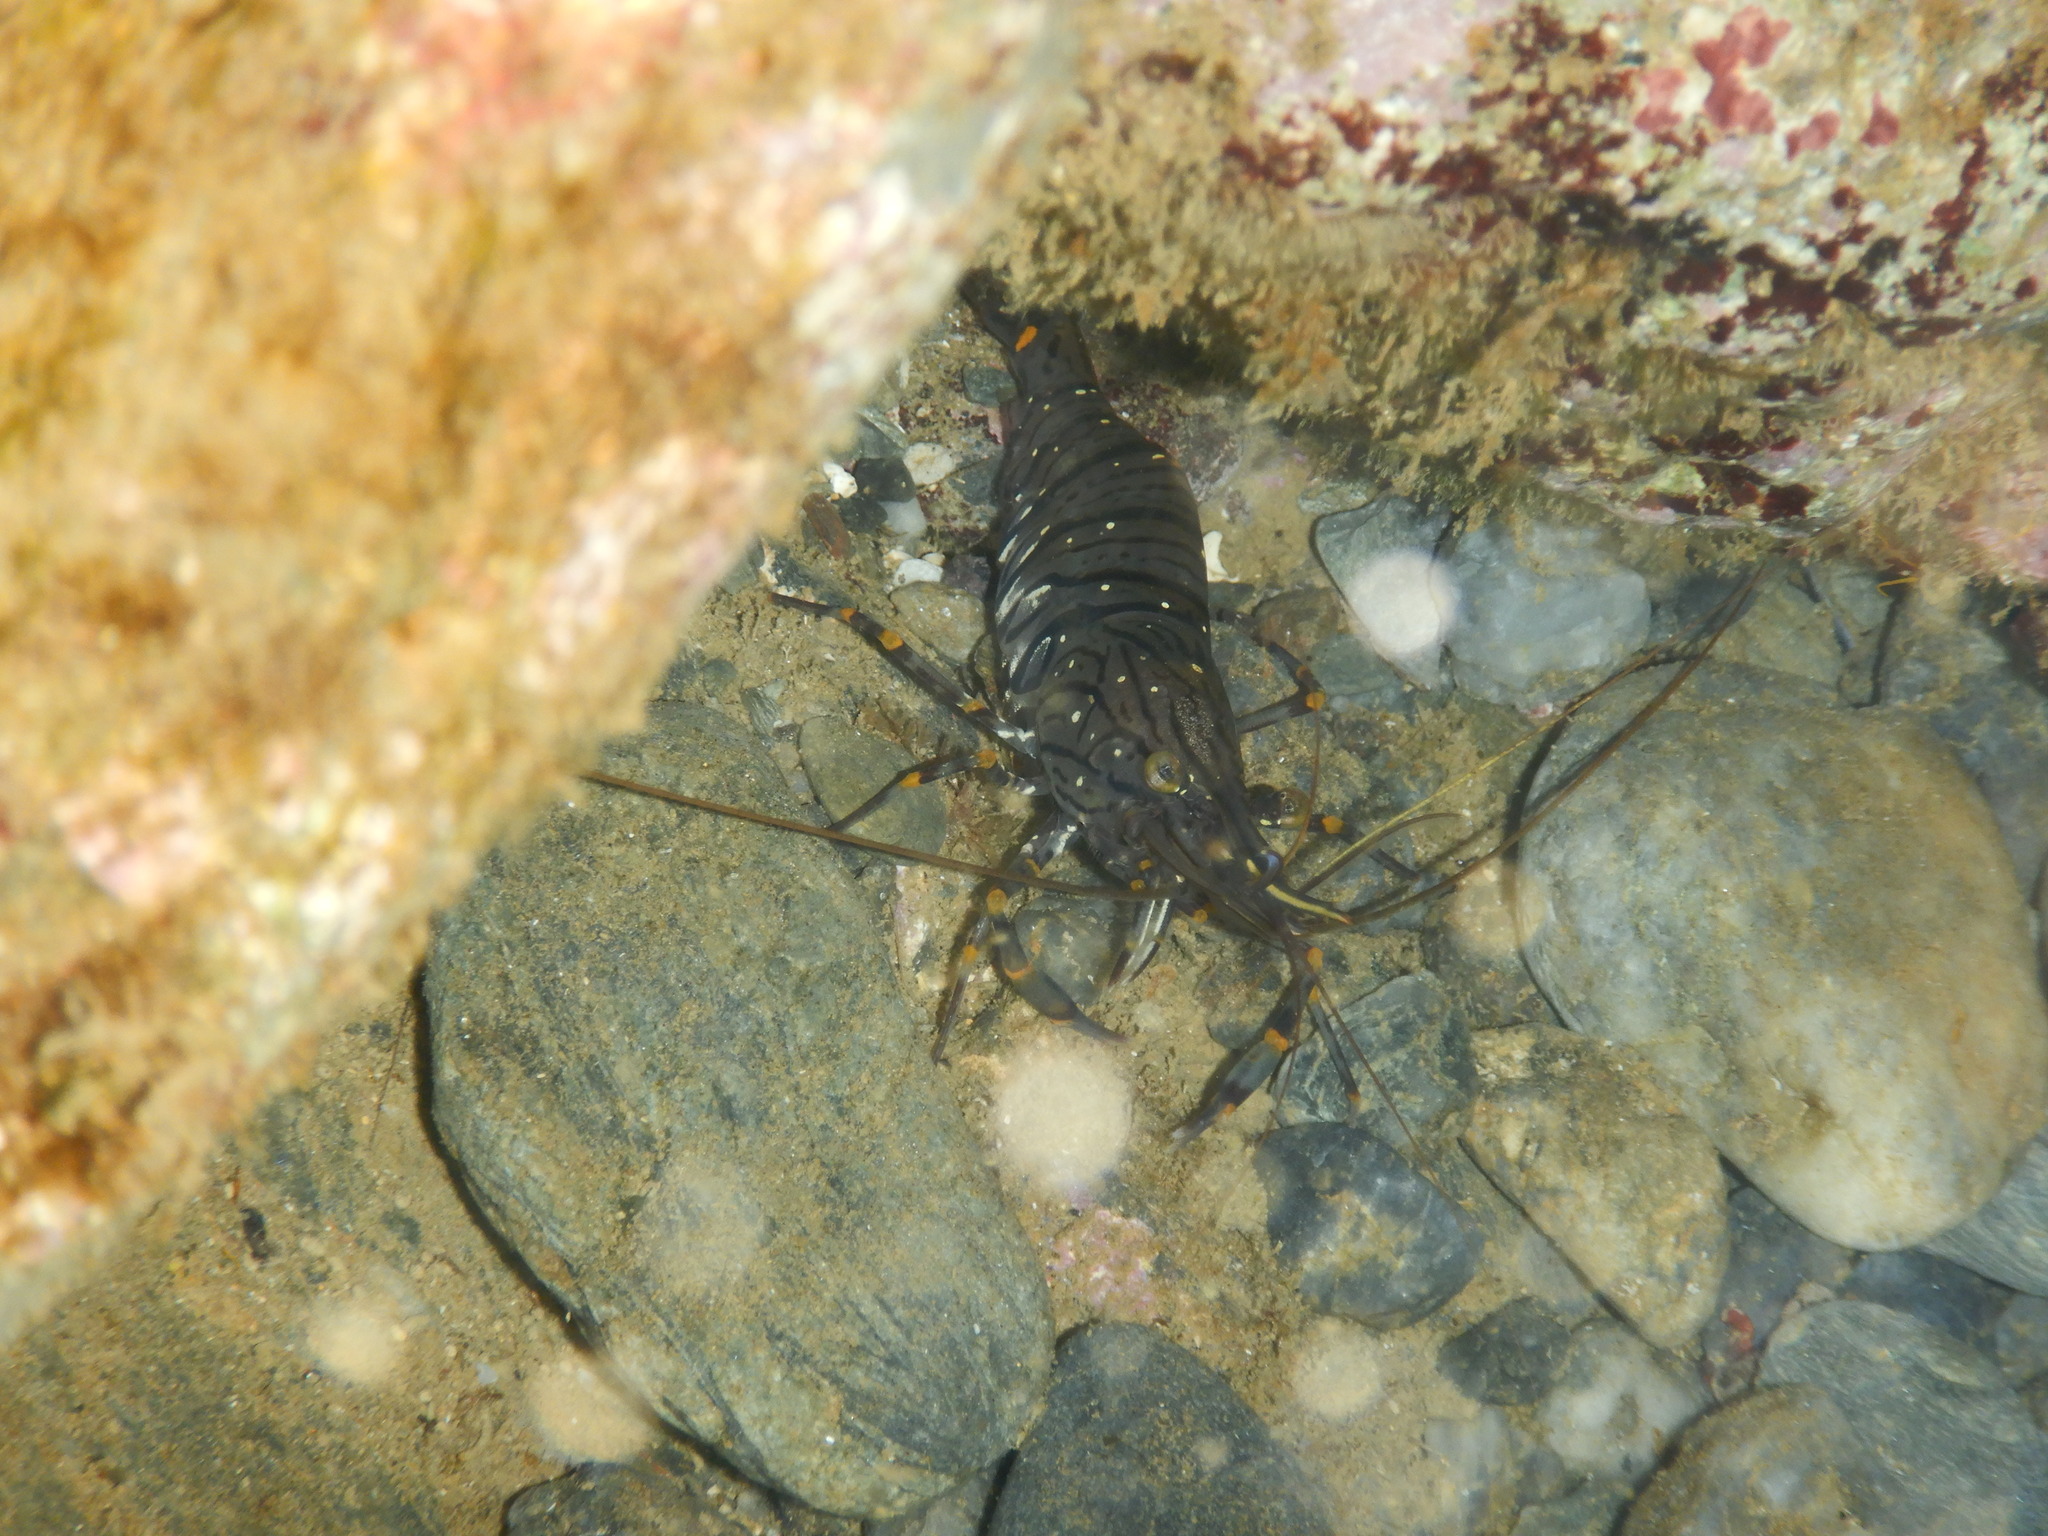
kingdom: Animalia
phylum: Arthropoda
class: Malacostraca
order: Decapoda
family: Palaemonidae
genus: Palaemon
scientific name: Palaemon serratus
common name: Common prawn
